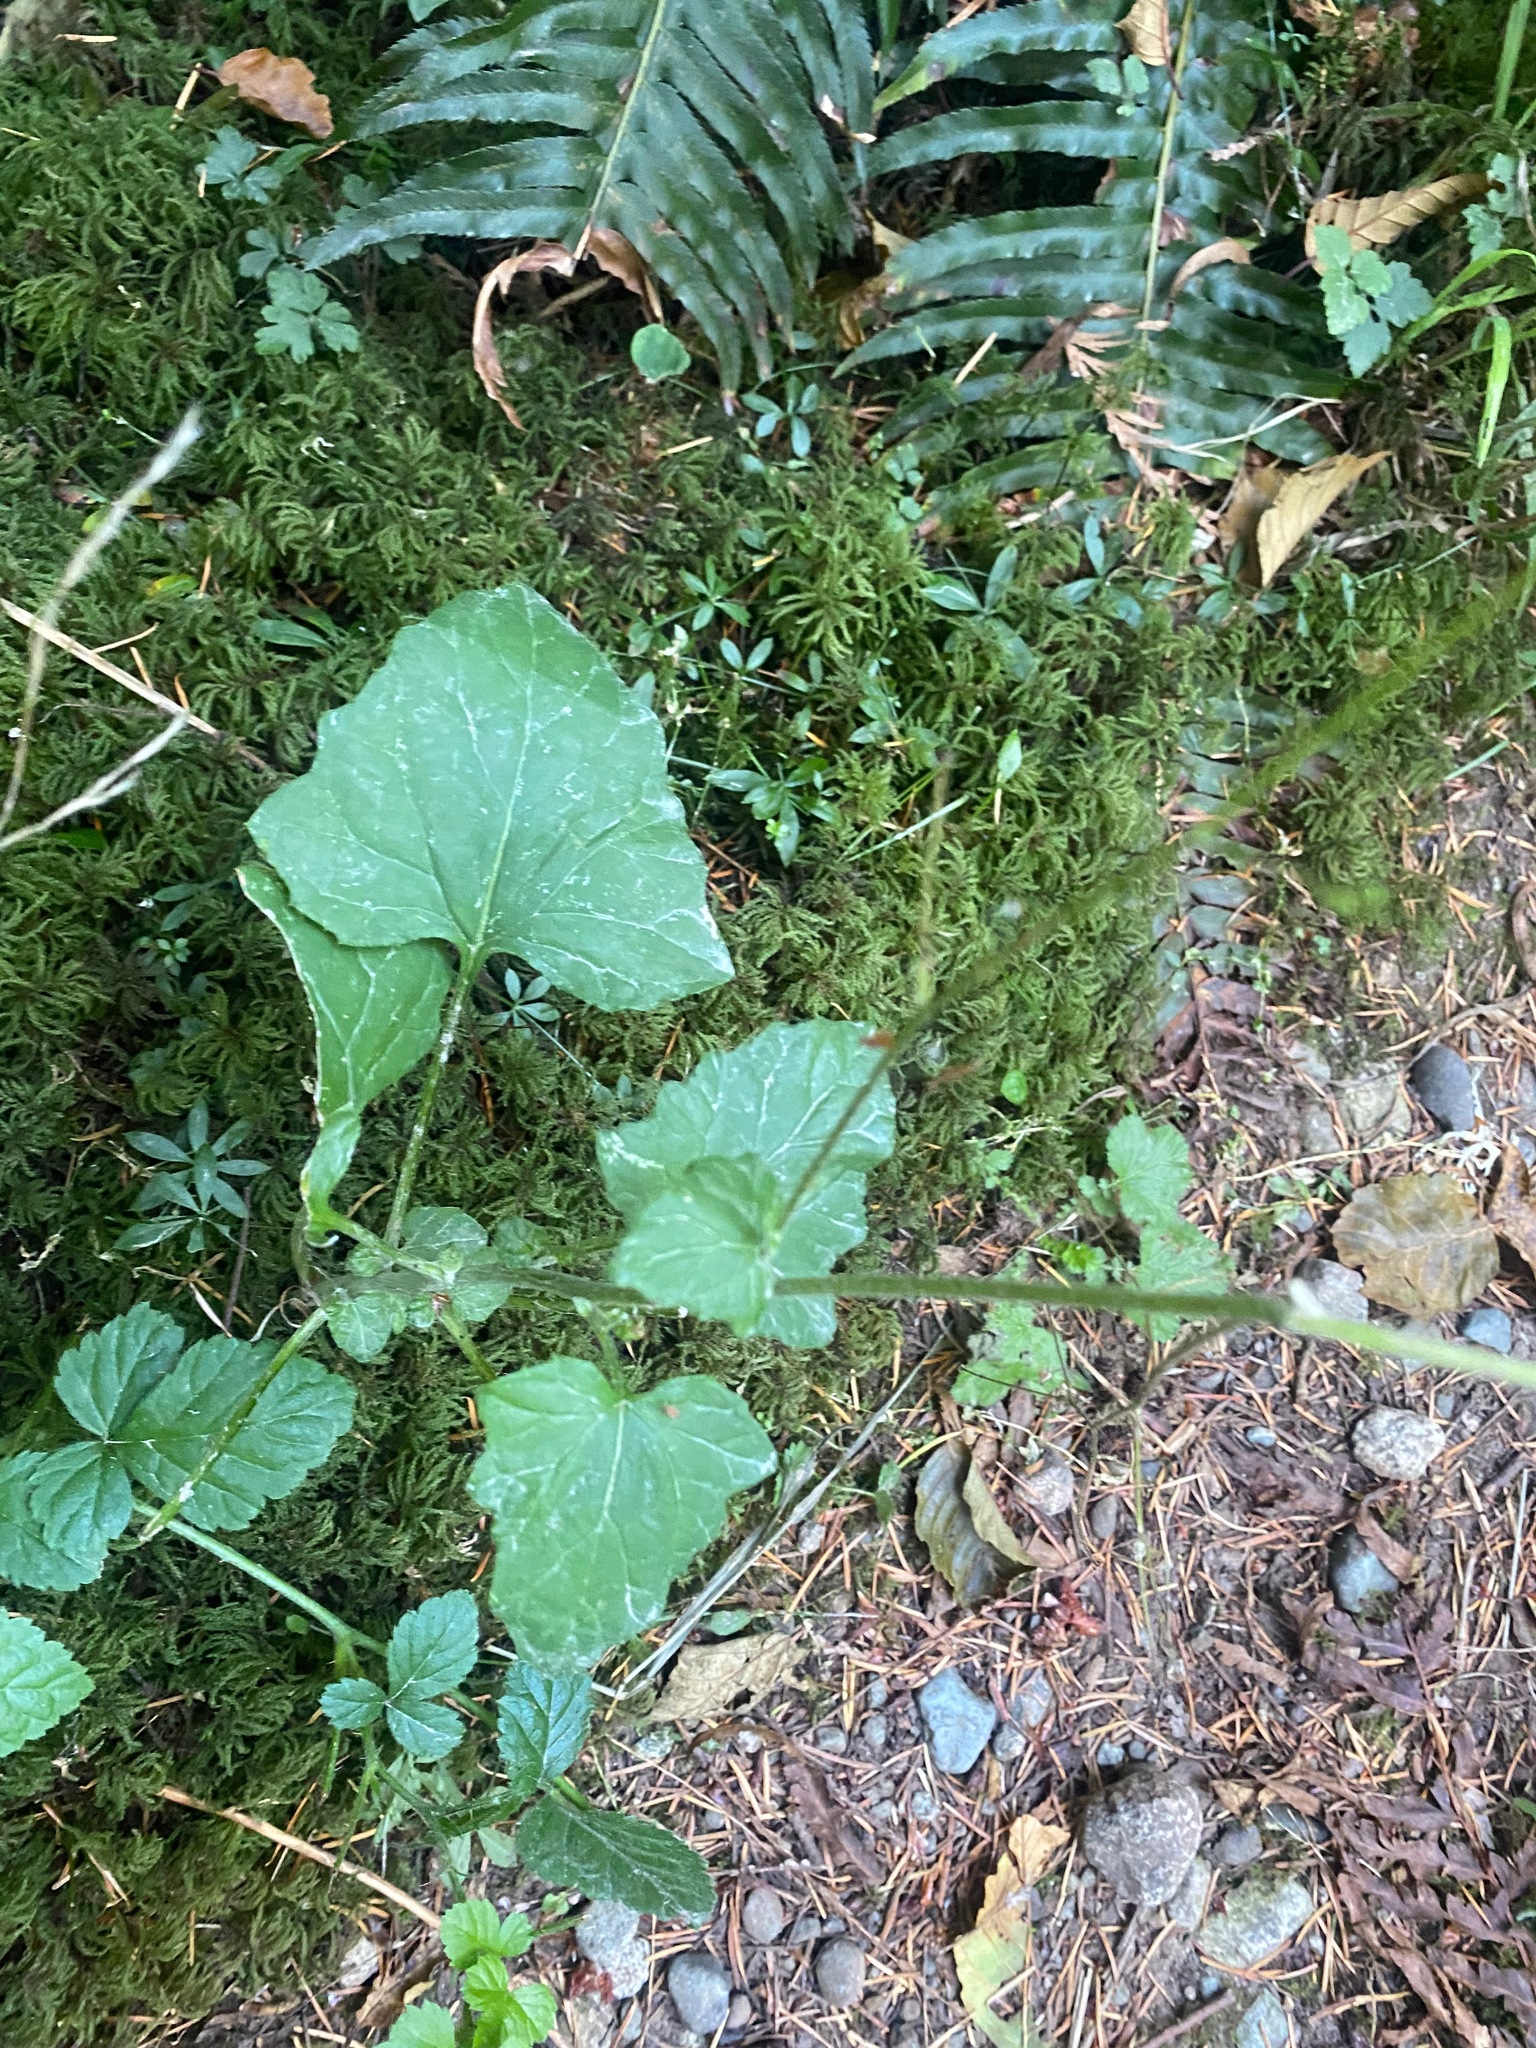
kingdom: Plantae
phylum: Tracheophyta
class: Magnoliopsida
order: Asterales
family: Asteraceae
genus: Adenocaulon
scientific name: Adenocaulon bicolor
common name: Trailplant
